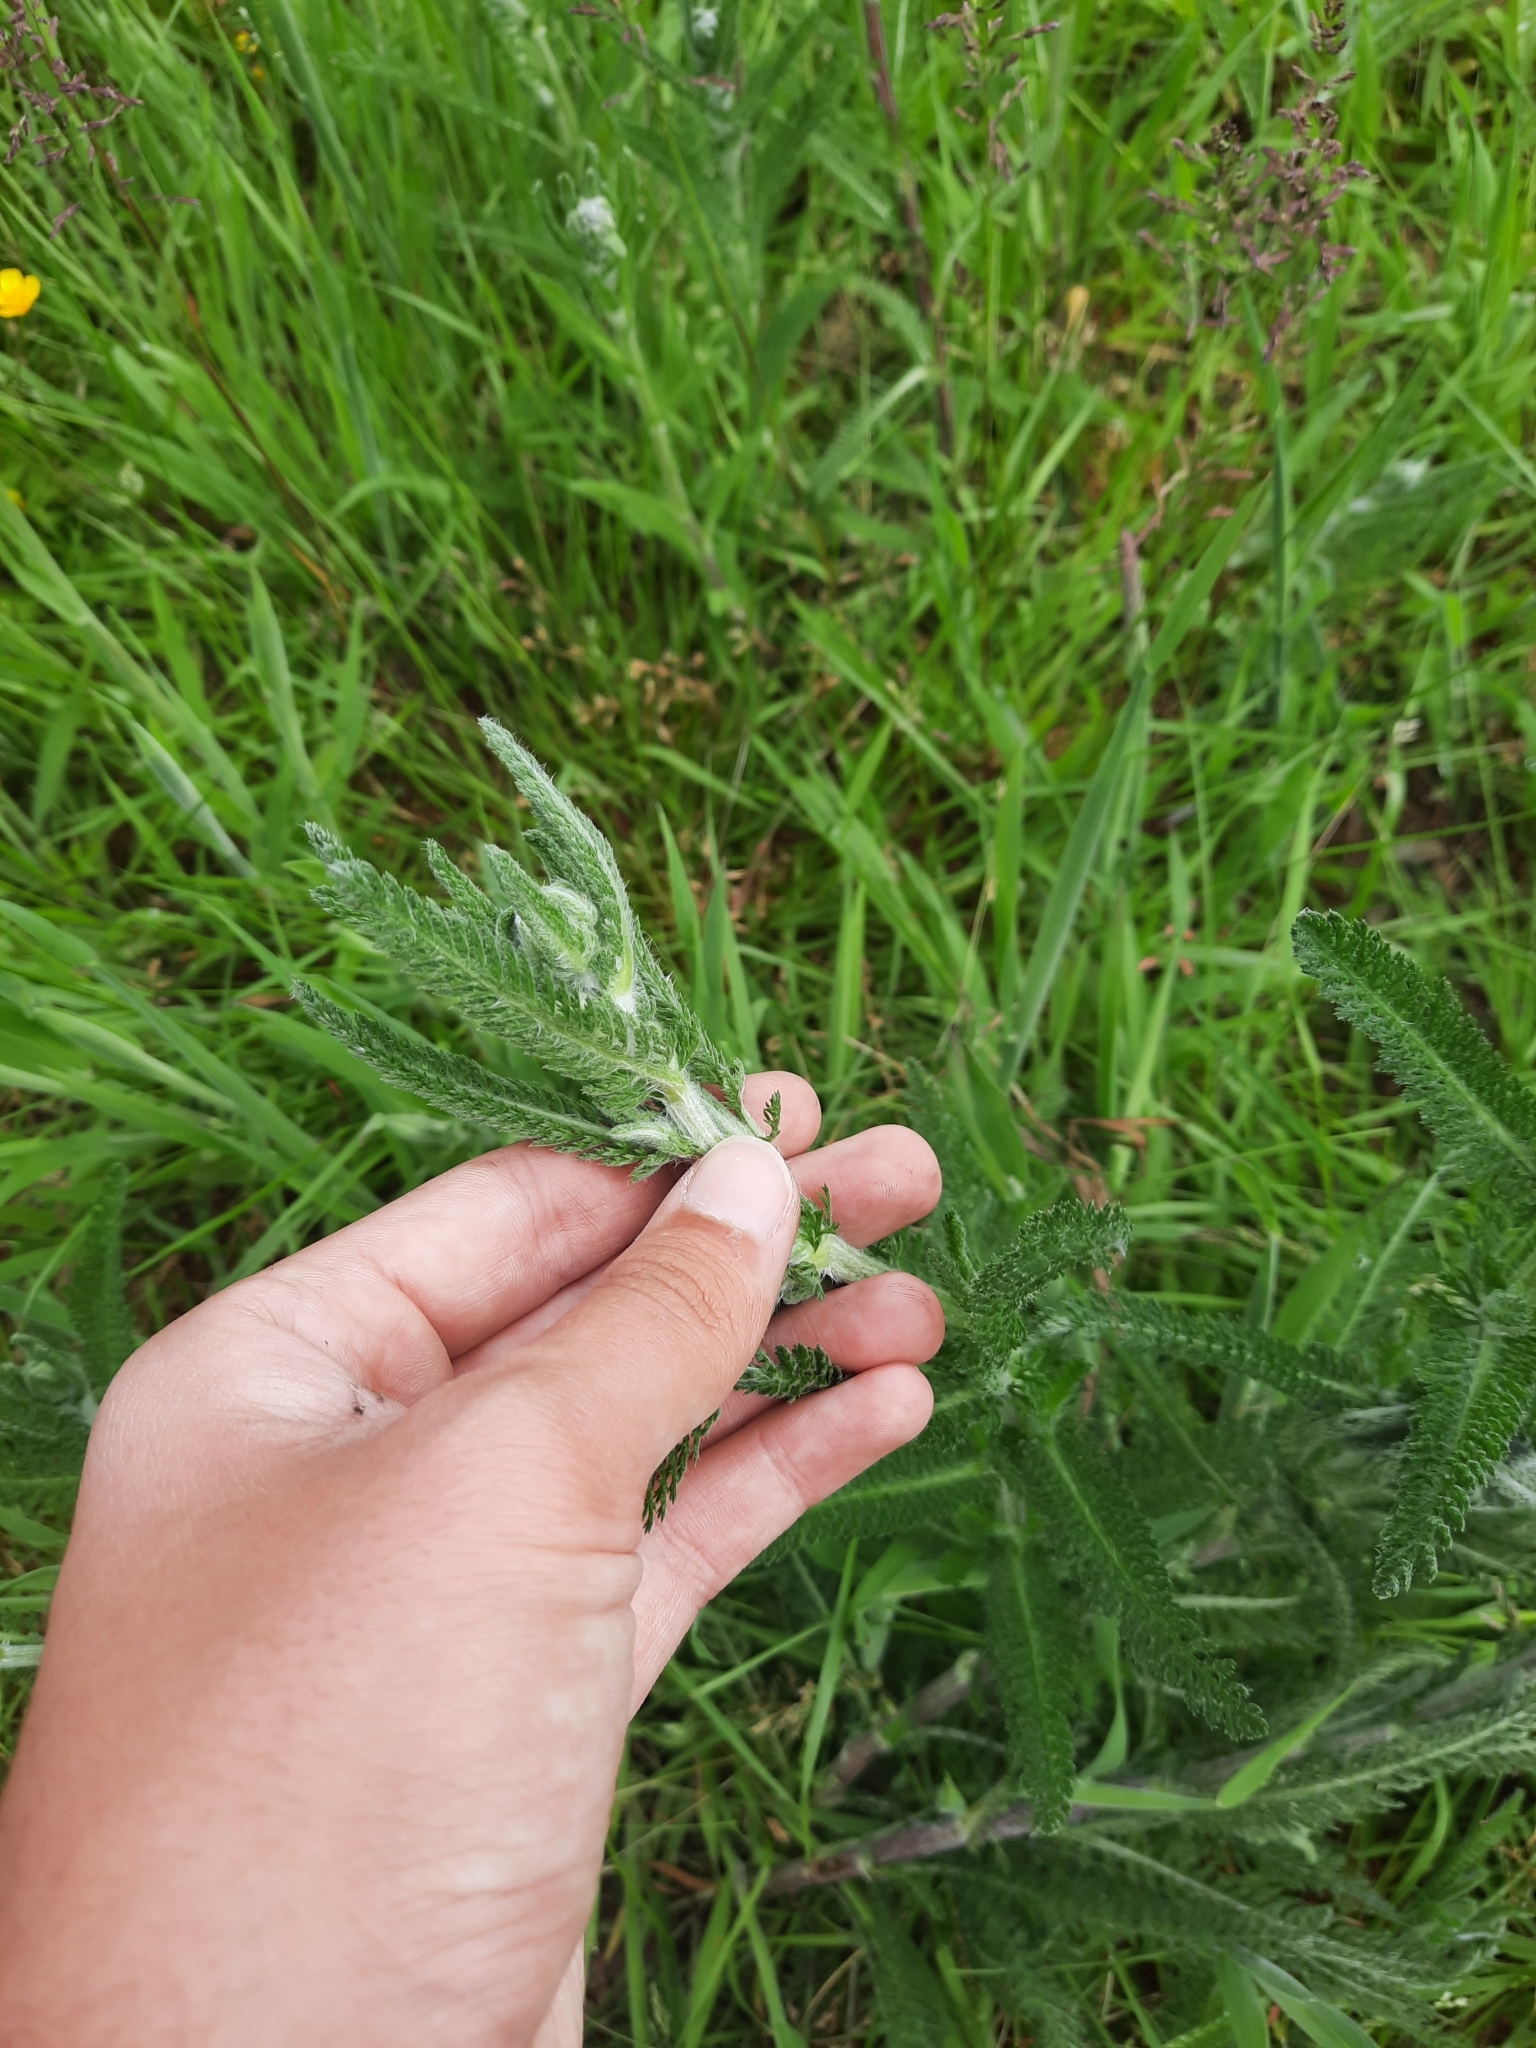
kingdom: Plantae
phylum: Tracheophyta
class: Magnoliopsida
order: Asterales
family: Asteraceae
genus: Achillea
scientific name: Achillea millefolium
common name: Yarrow
